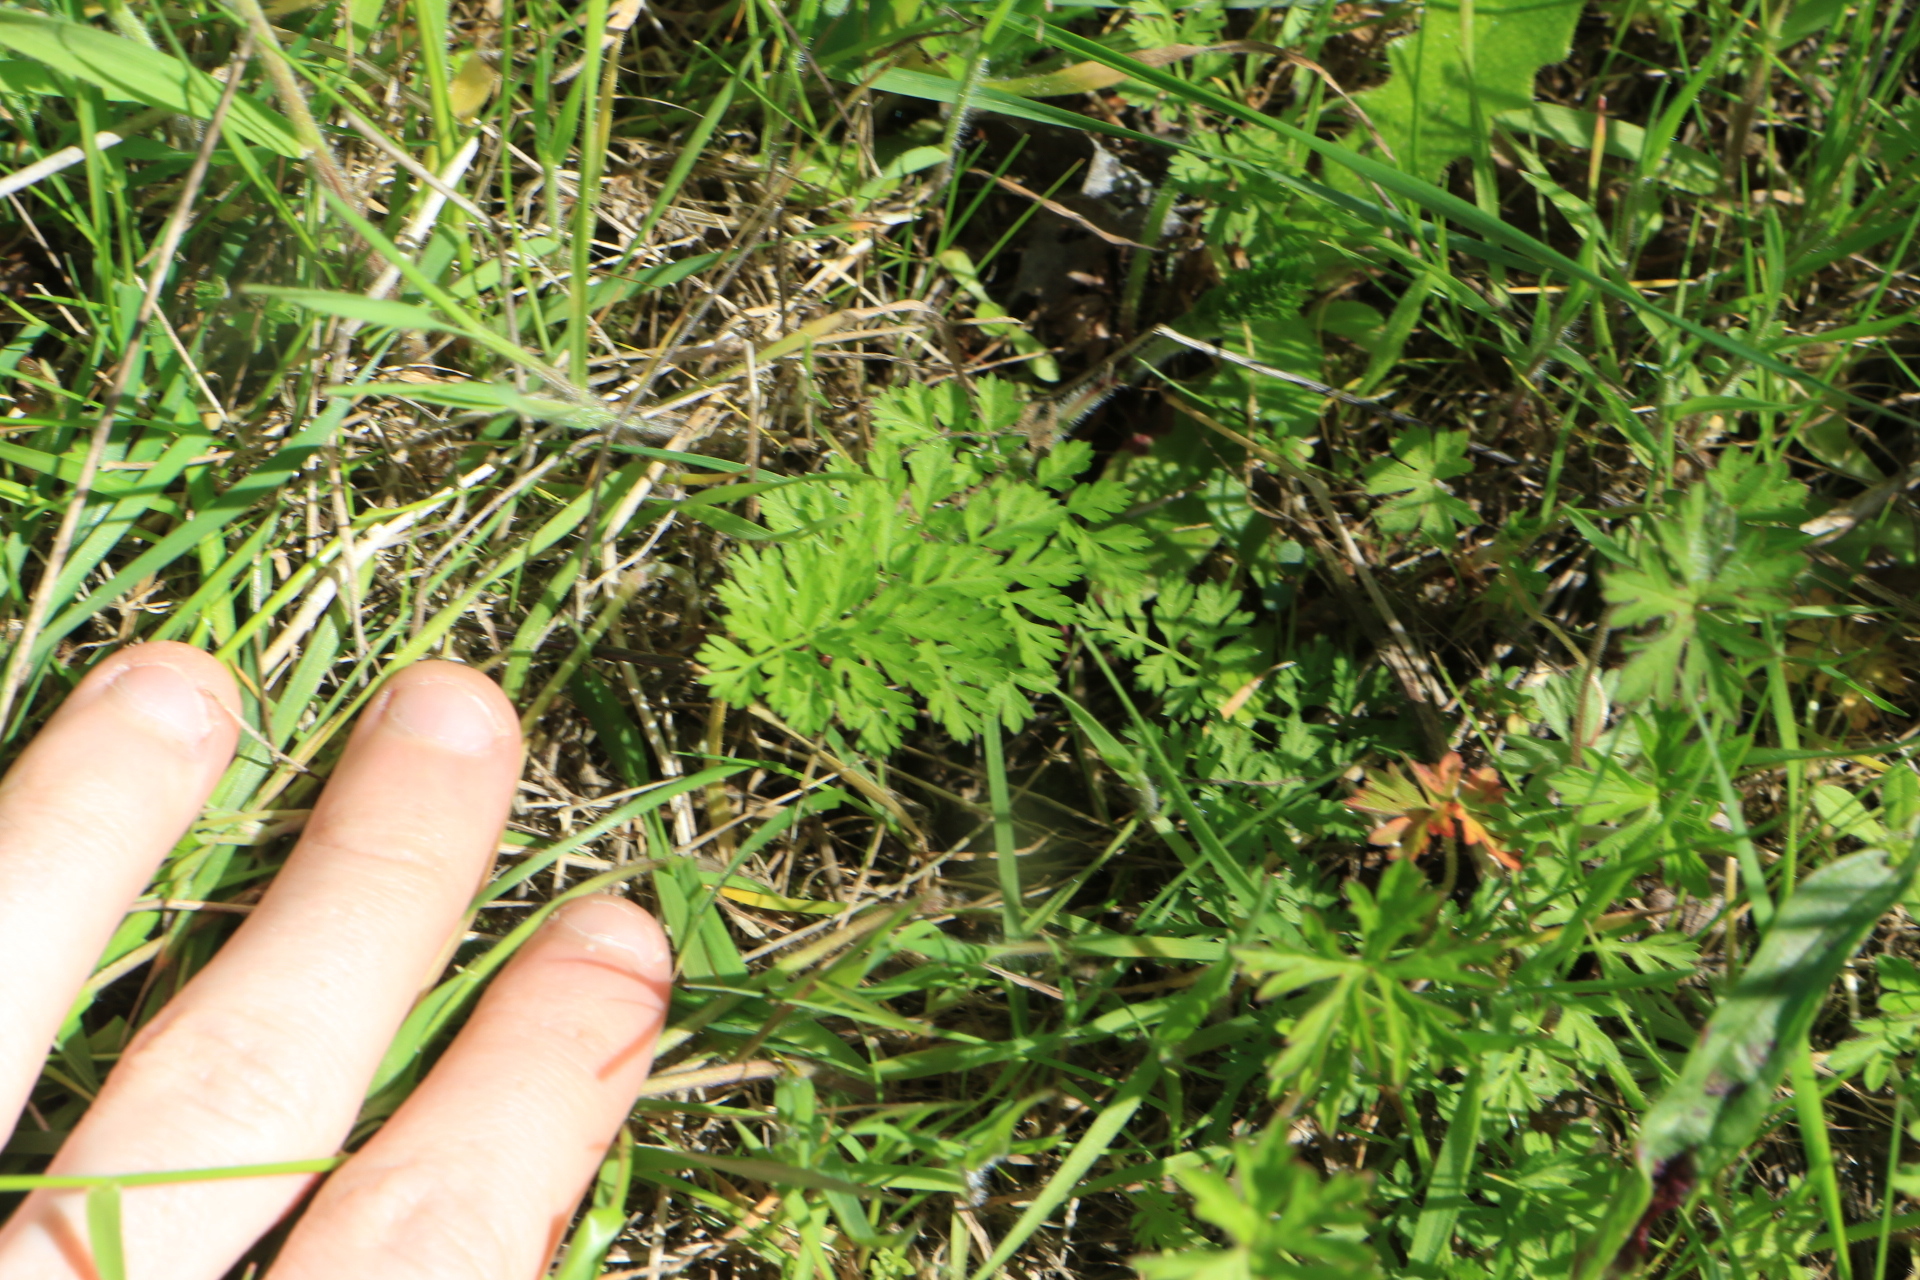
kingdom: Plantae
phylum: Tracheophyta
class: Magnoliopsida
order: Apiales
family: Apiaceae
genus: Daucus
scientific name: Daucus carota
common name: Wild carrot
